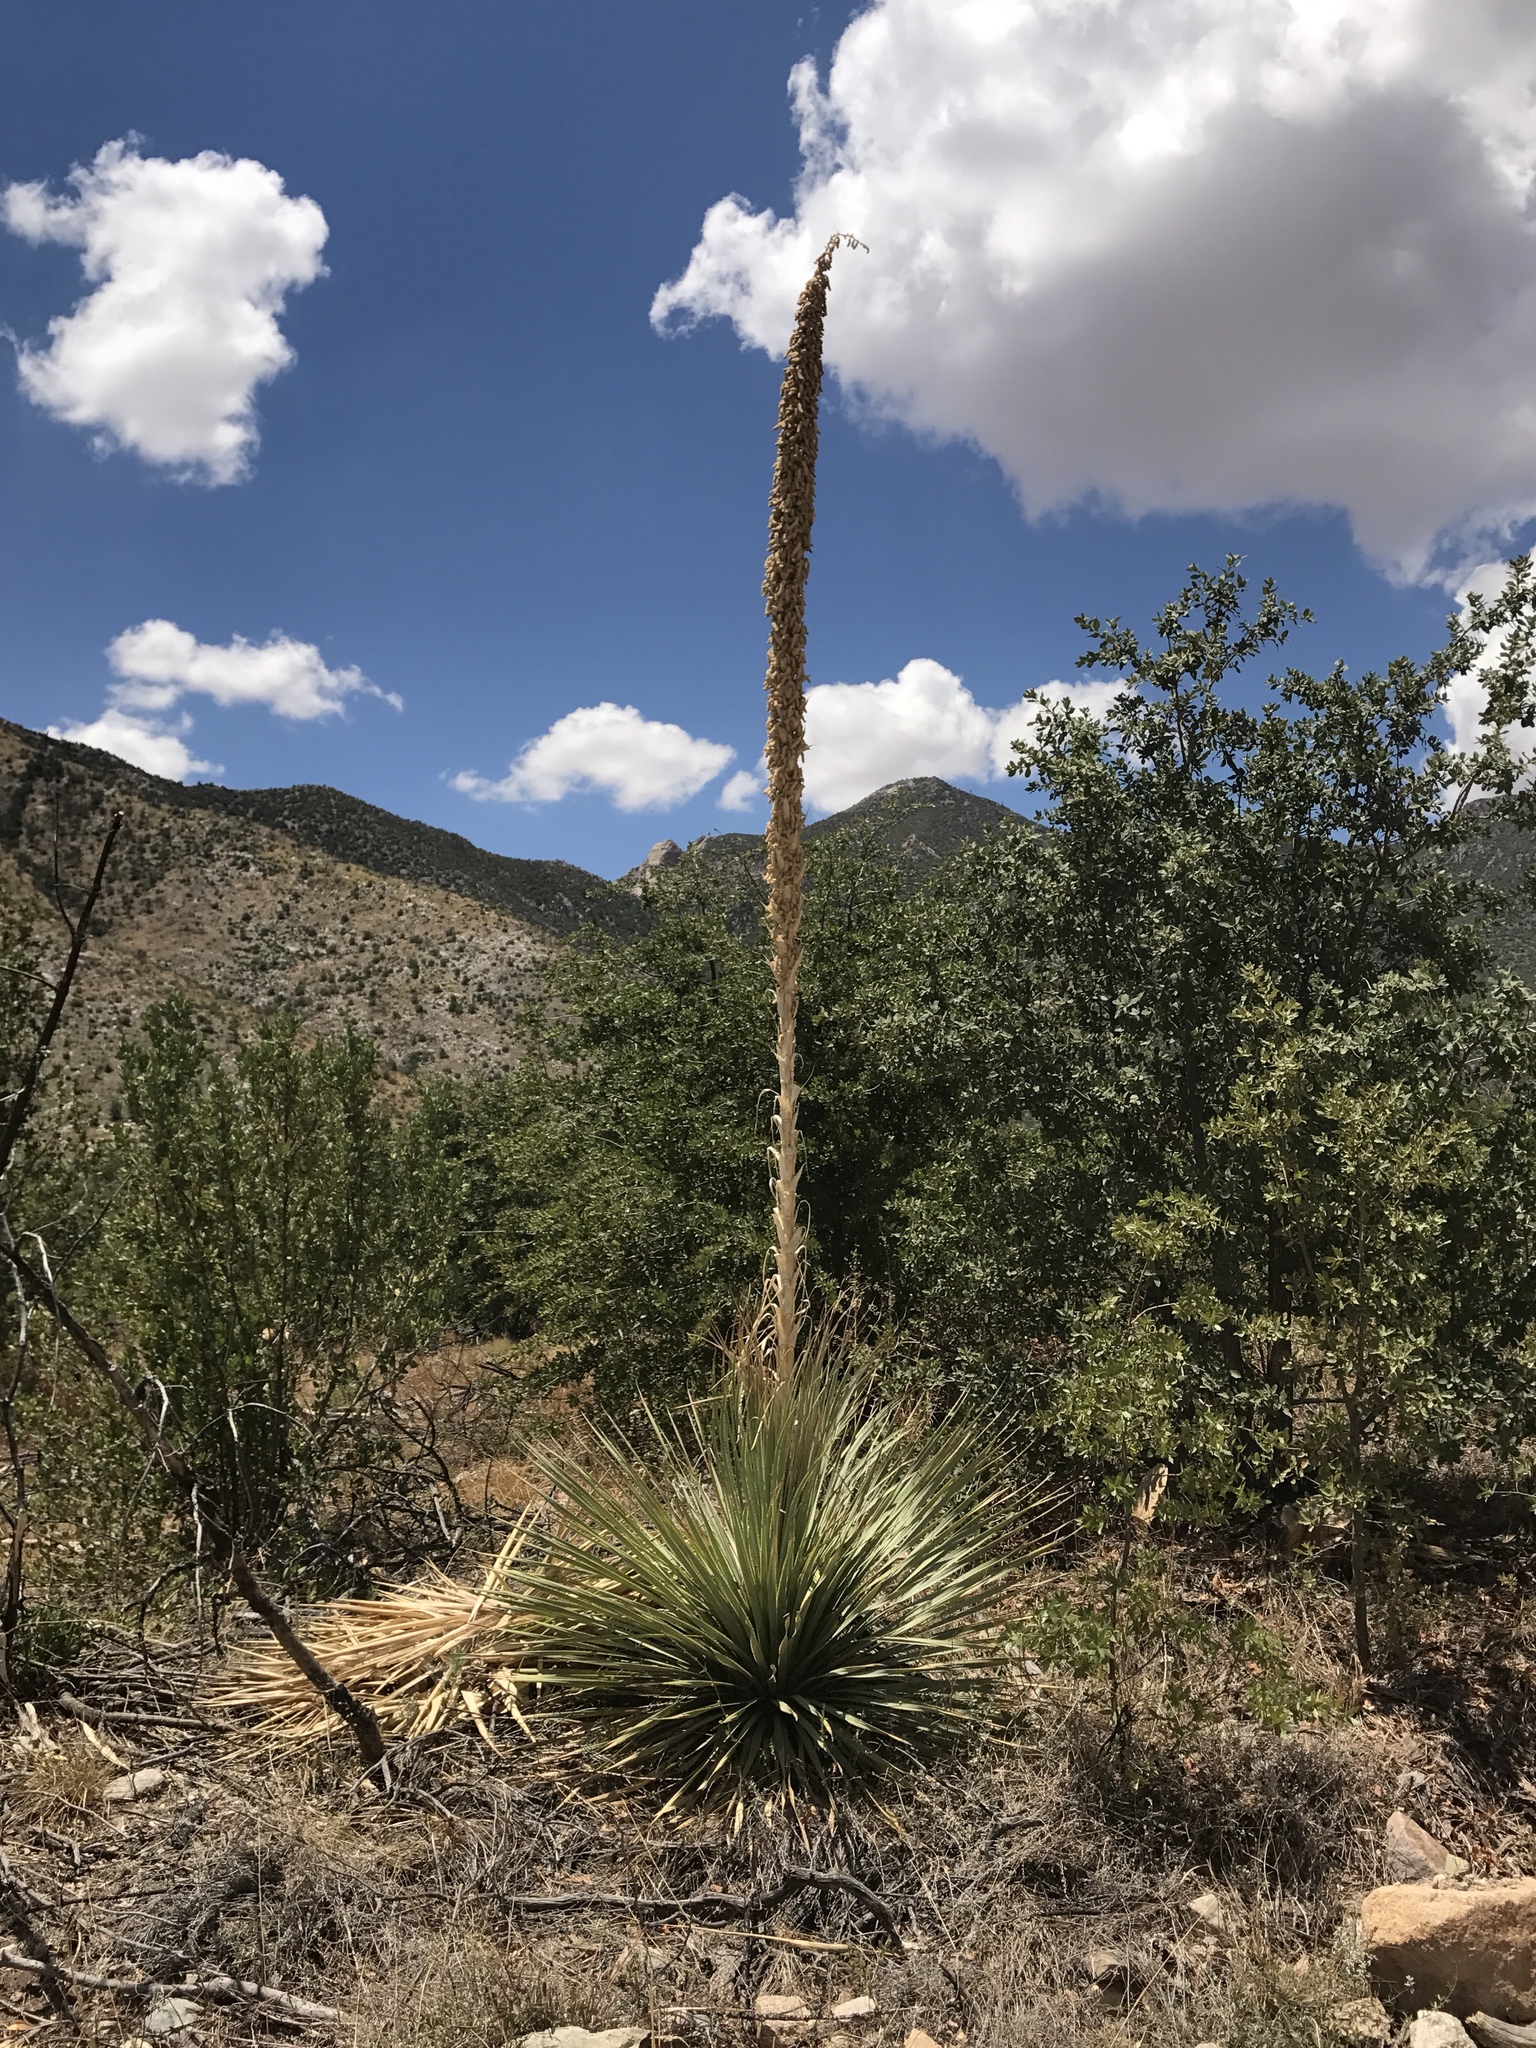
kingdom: Plantae
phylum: Tracheophyta
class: Liliopsida
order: Asparagales
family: Asparagaceae
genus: Dasylirion
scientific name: Dasylirion wheeleri
